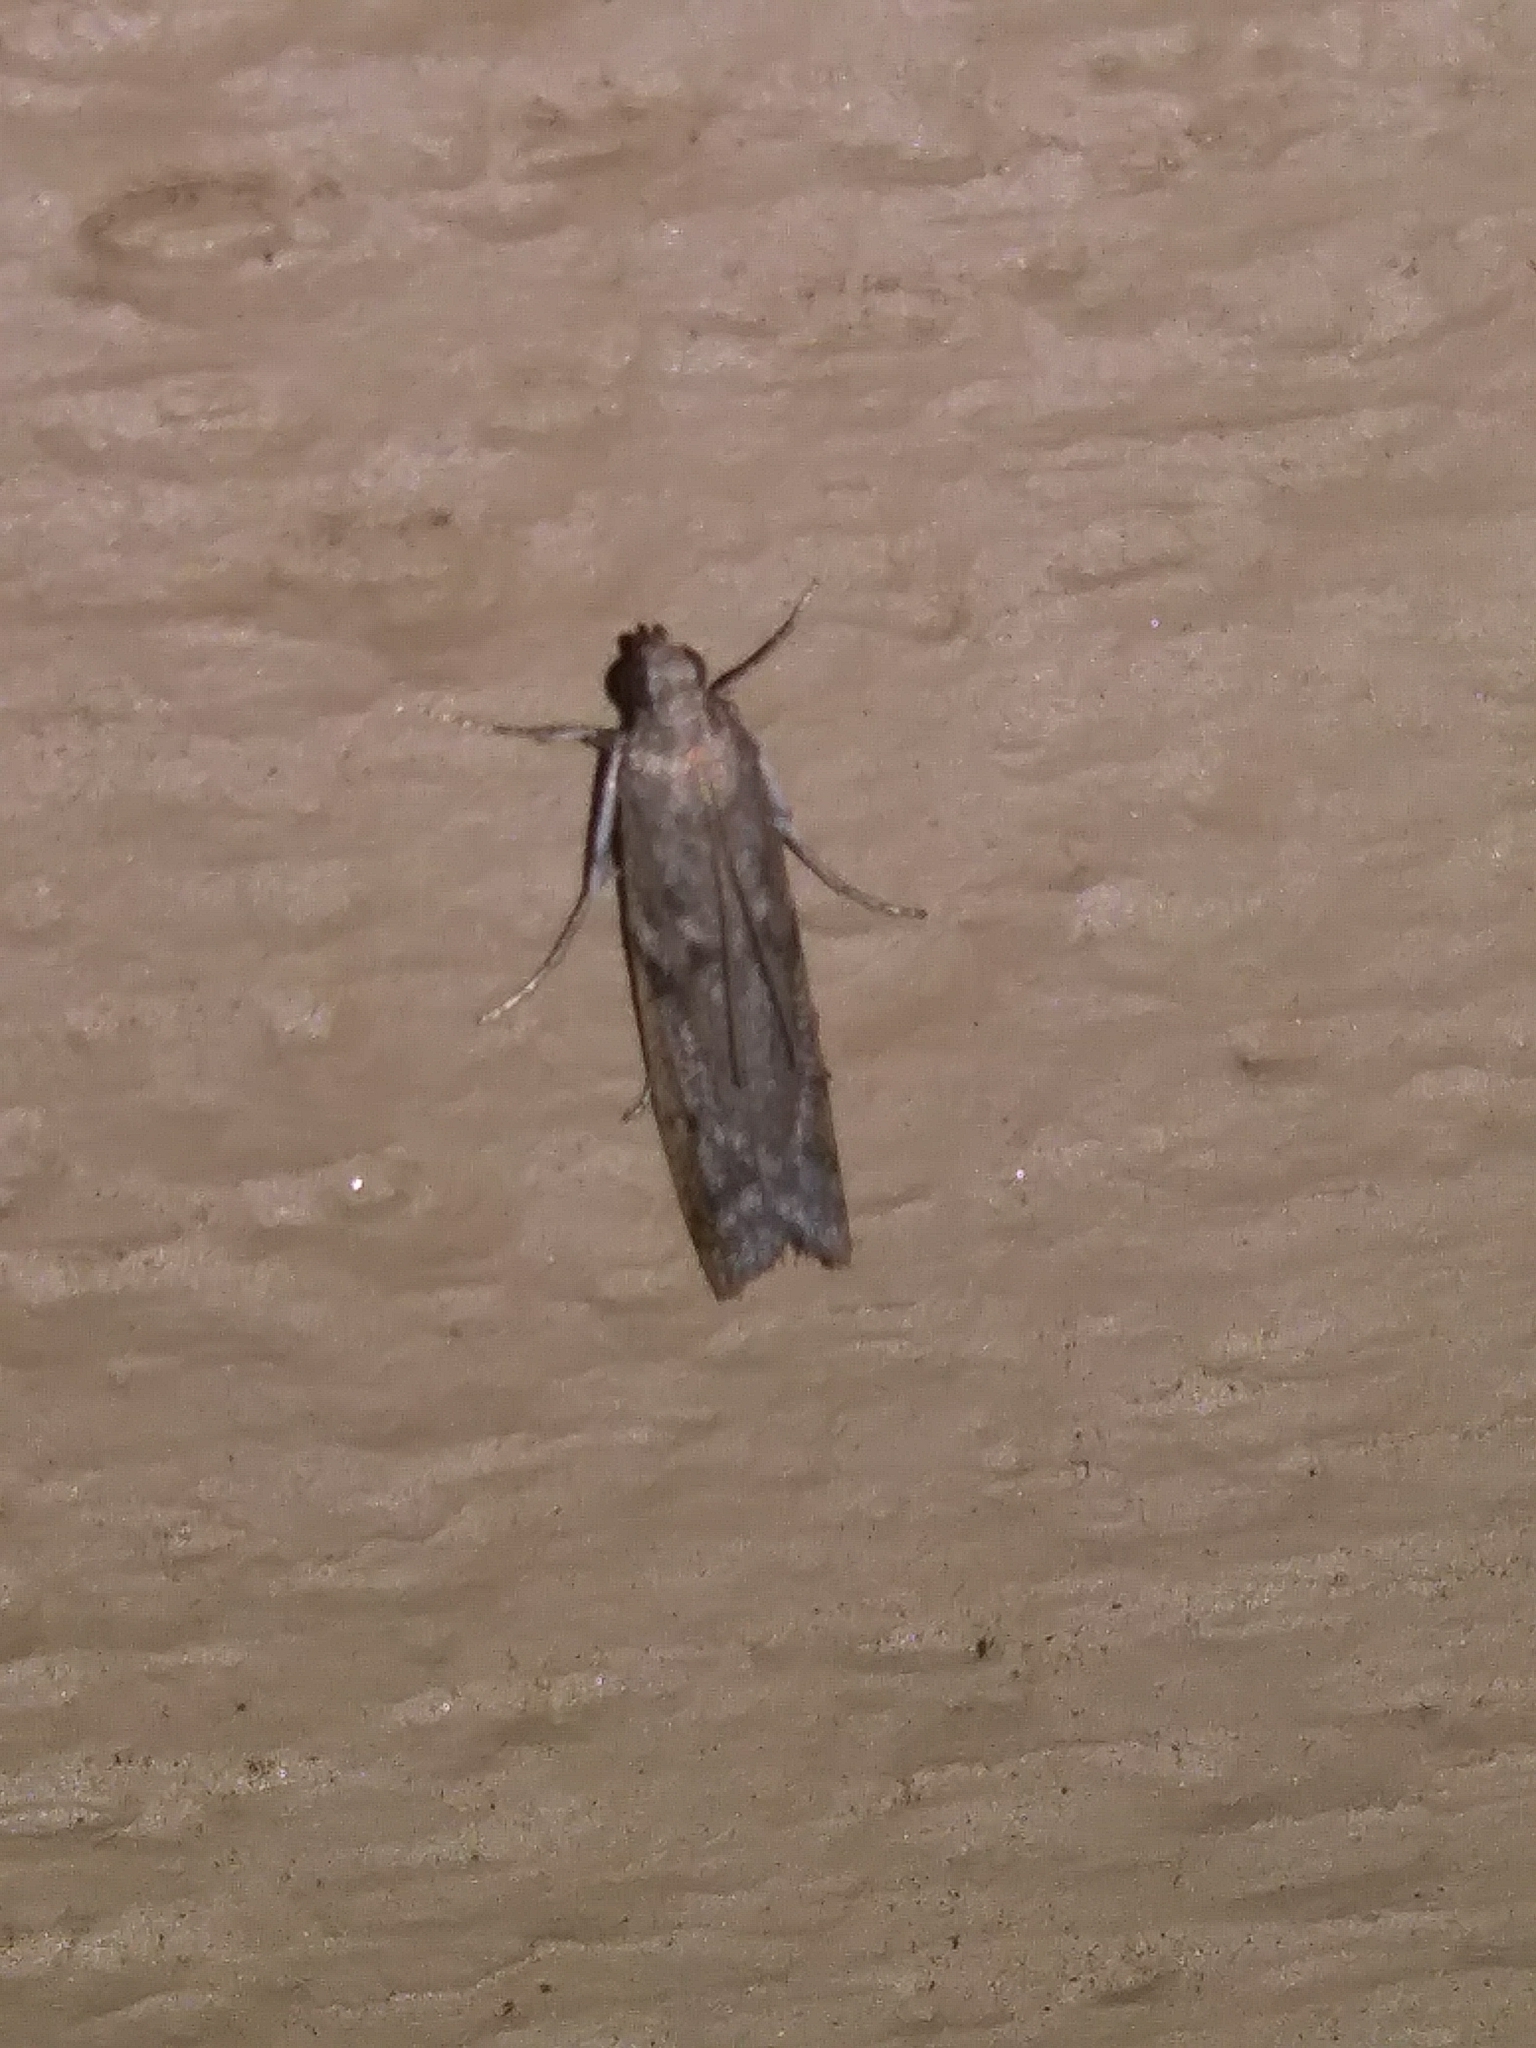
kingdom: Animalia
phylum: Arthropoda
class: Insecta
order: Lepidoptera
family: Pyralidae
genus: Phycitodes
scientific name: Phycitodes mucidellus
